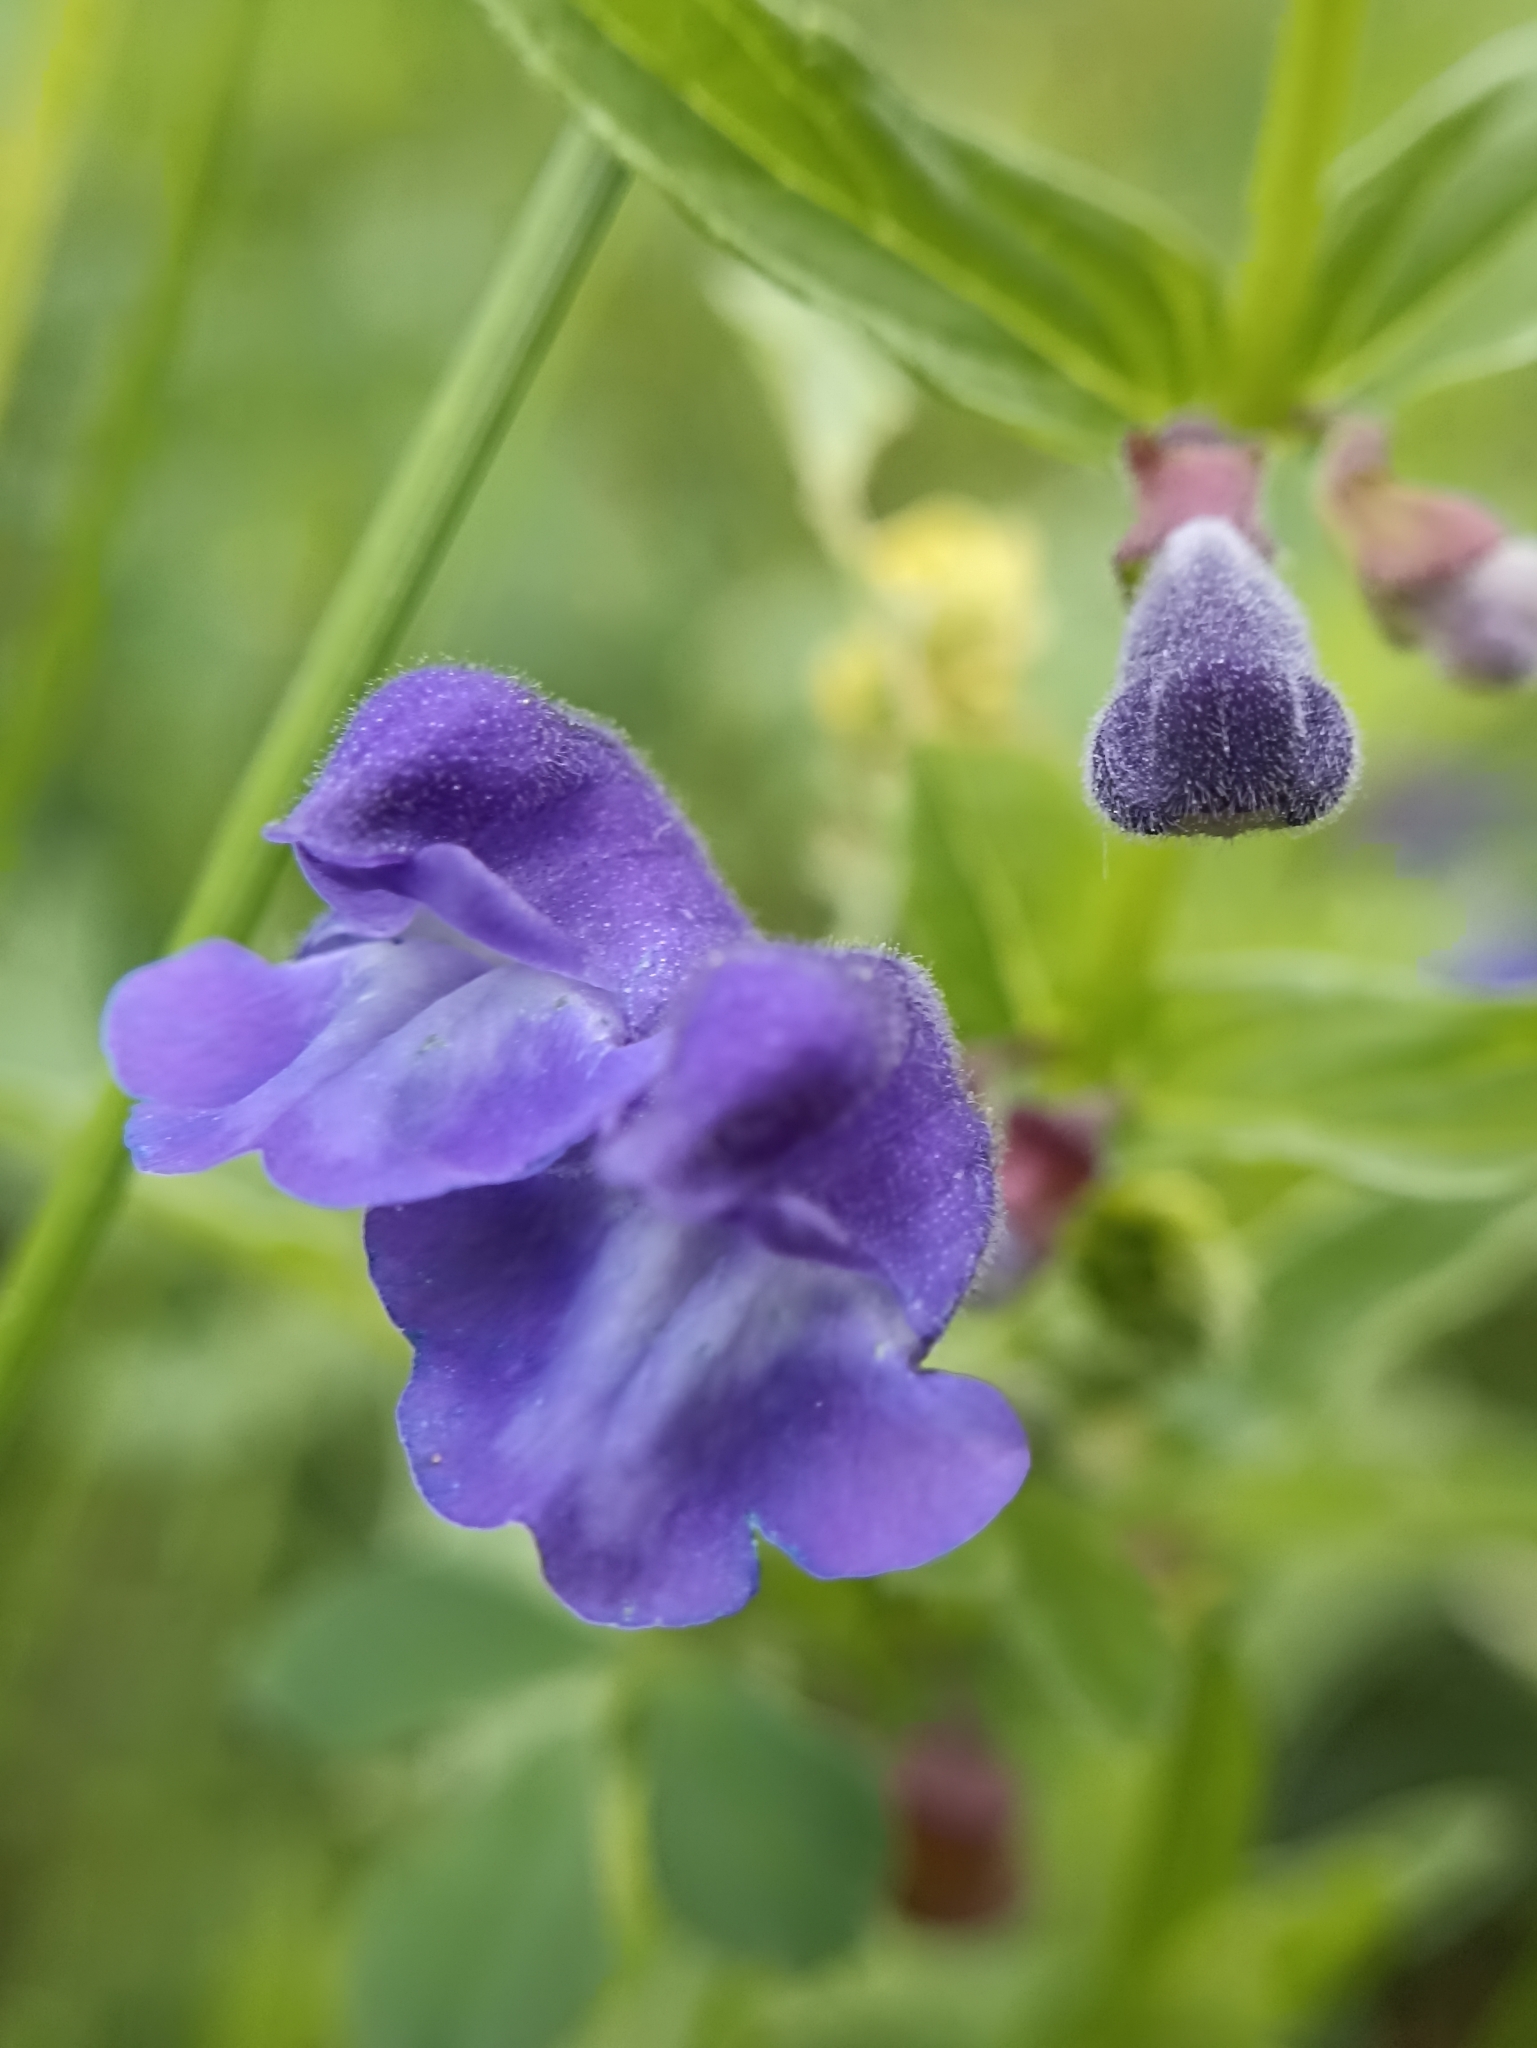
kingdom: Plantae
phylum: Tracheophyta
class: Magnoliopsida
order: Lamiales
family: Lamiaceae
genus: Scutellaria
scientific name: Scutellaria scordiifolia
